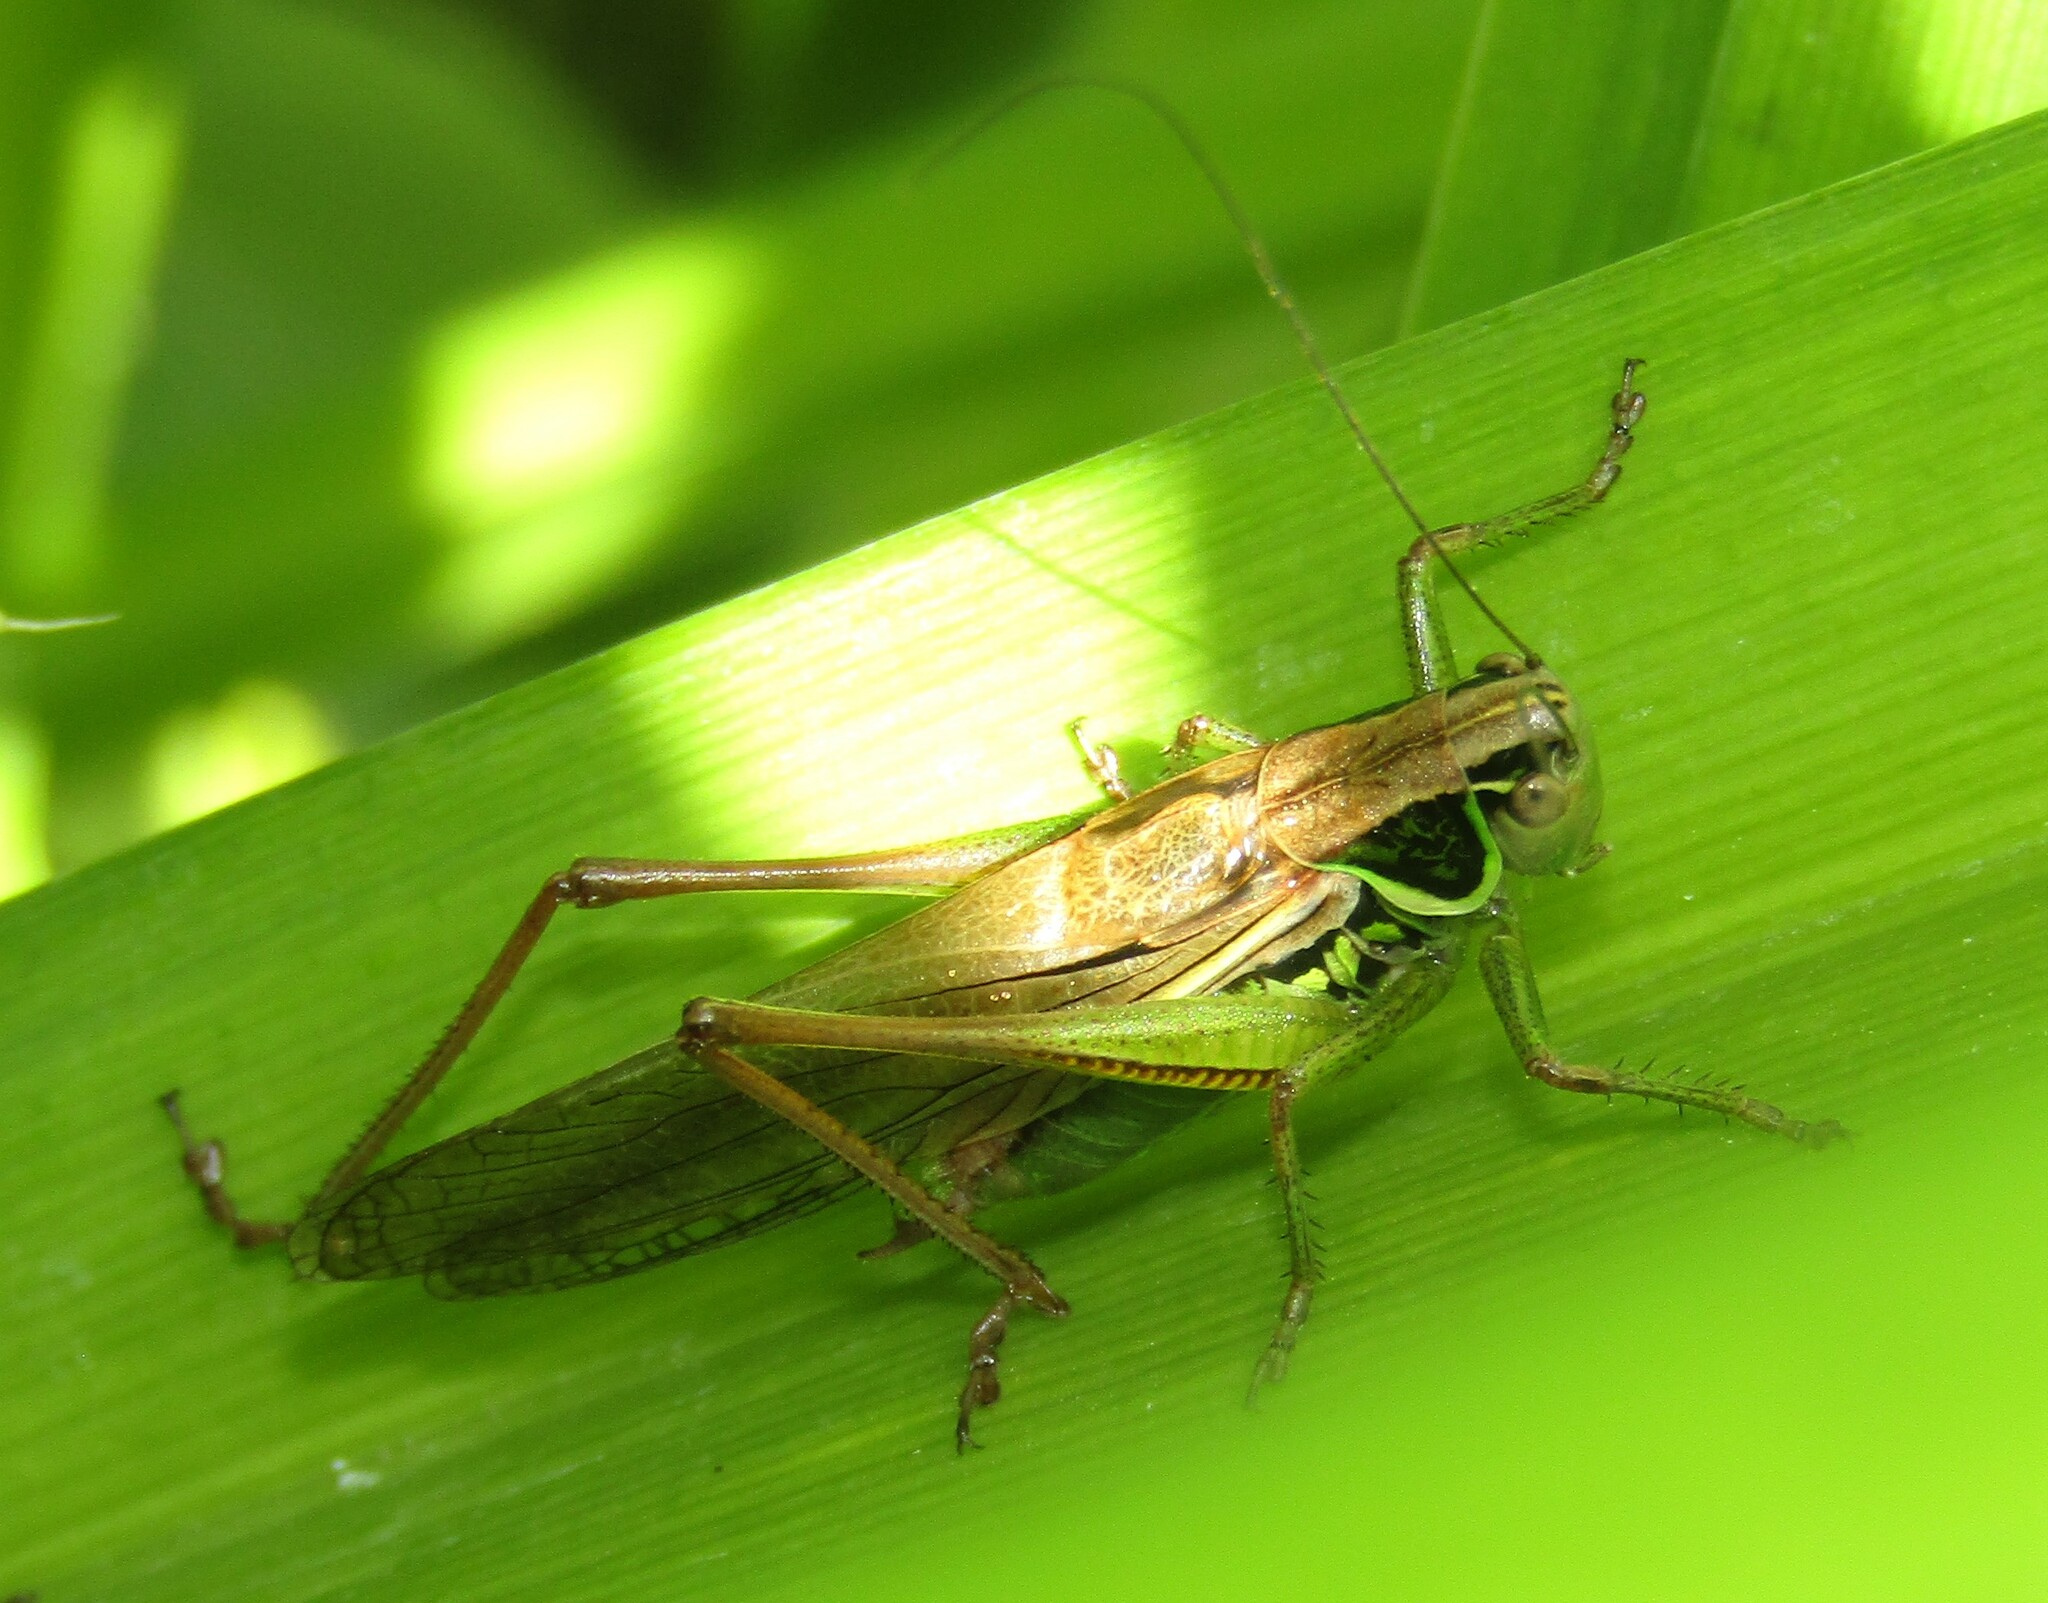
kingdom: Animalia
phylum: Arthropoda
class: Insecta
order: Orthoptera
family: Tettigoniidae
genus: Roeseliana
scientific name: Roeseliana roeselii
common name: Roesel's bush cricket
